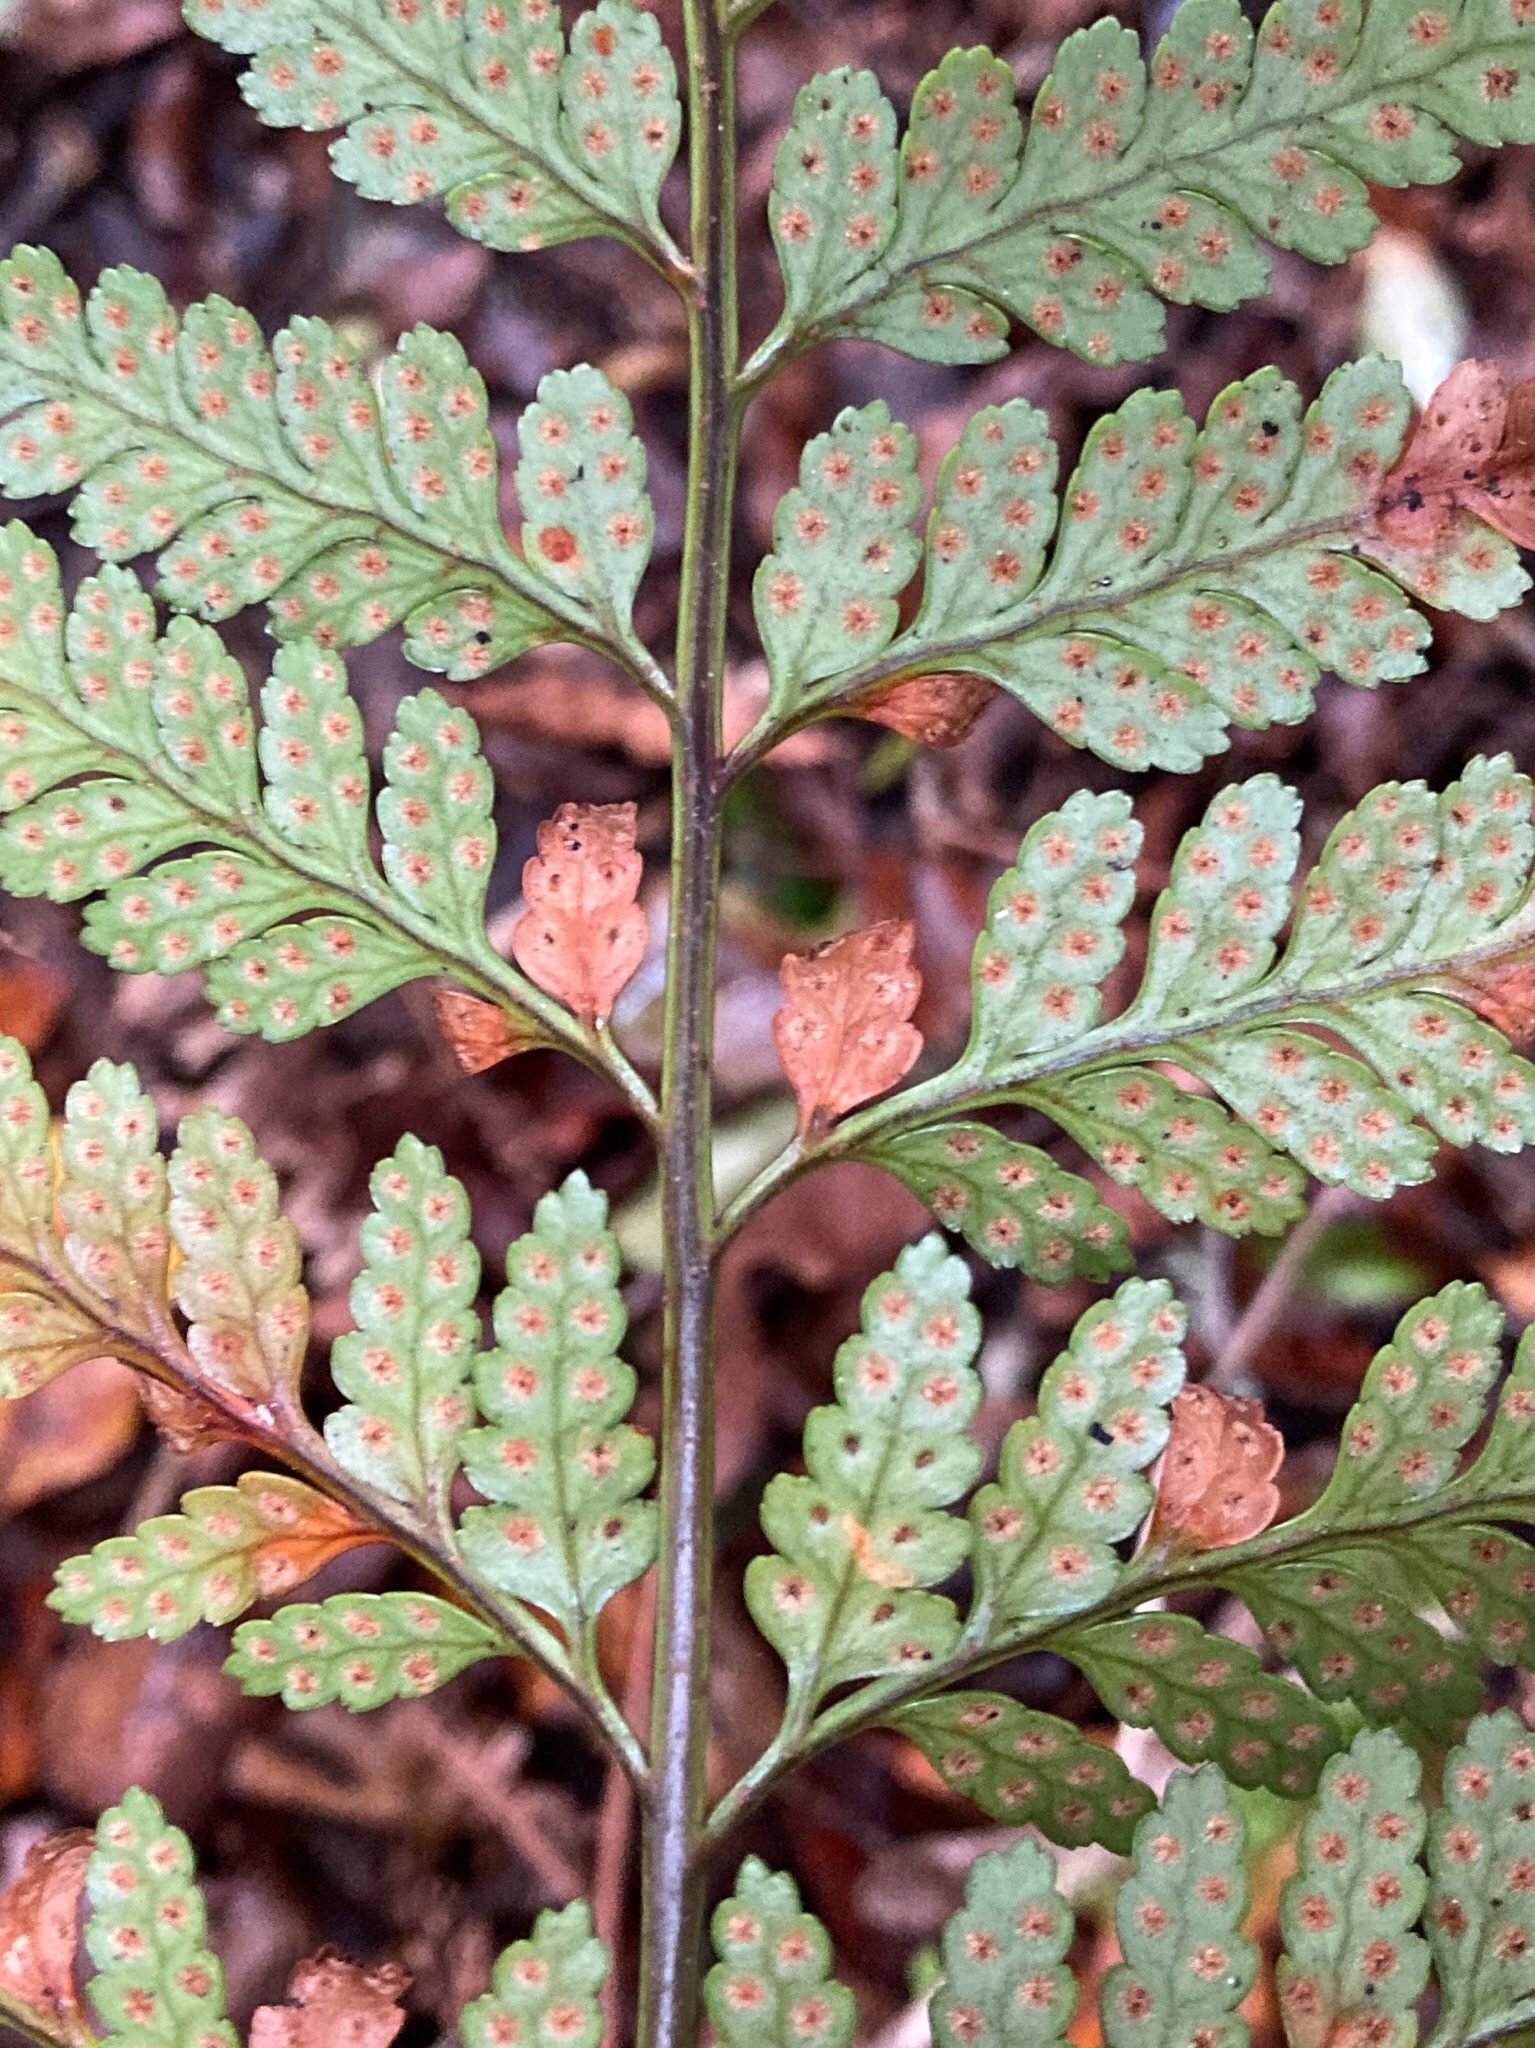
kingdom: Plantae
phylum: Tracheophyta
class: Polypodiopsida
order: Polypodiales
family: Dryopteridaceae
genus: Rumohra
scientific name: Rumohra adiantiformis
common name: Leather fern
